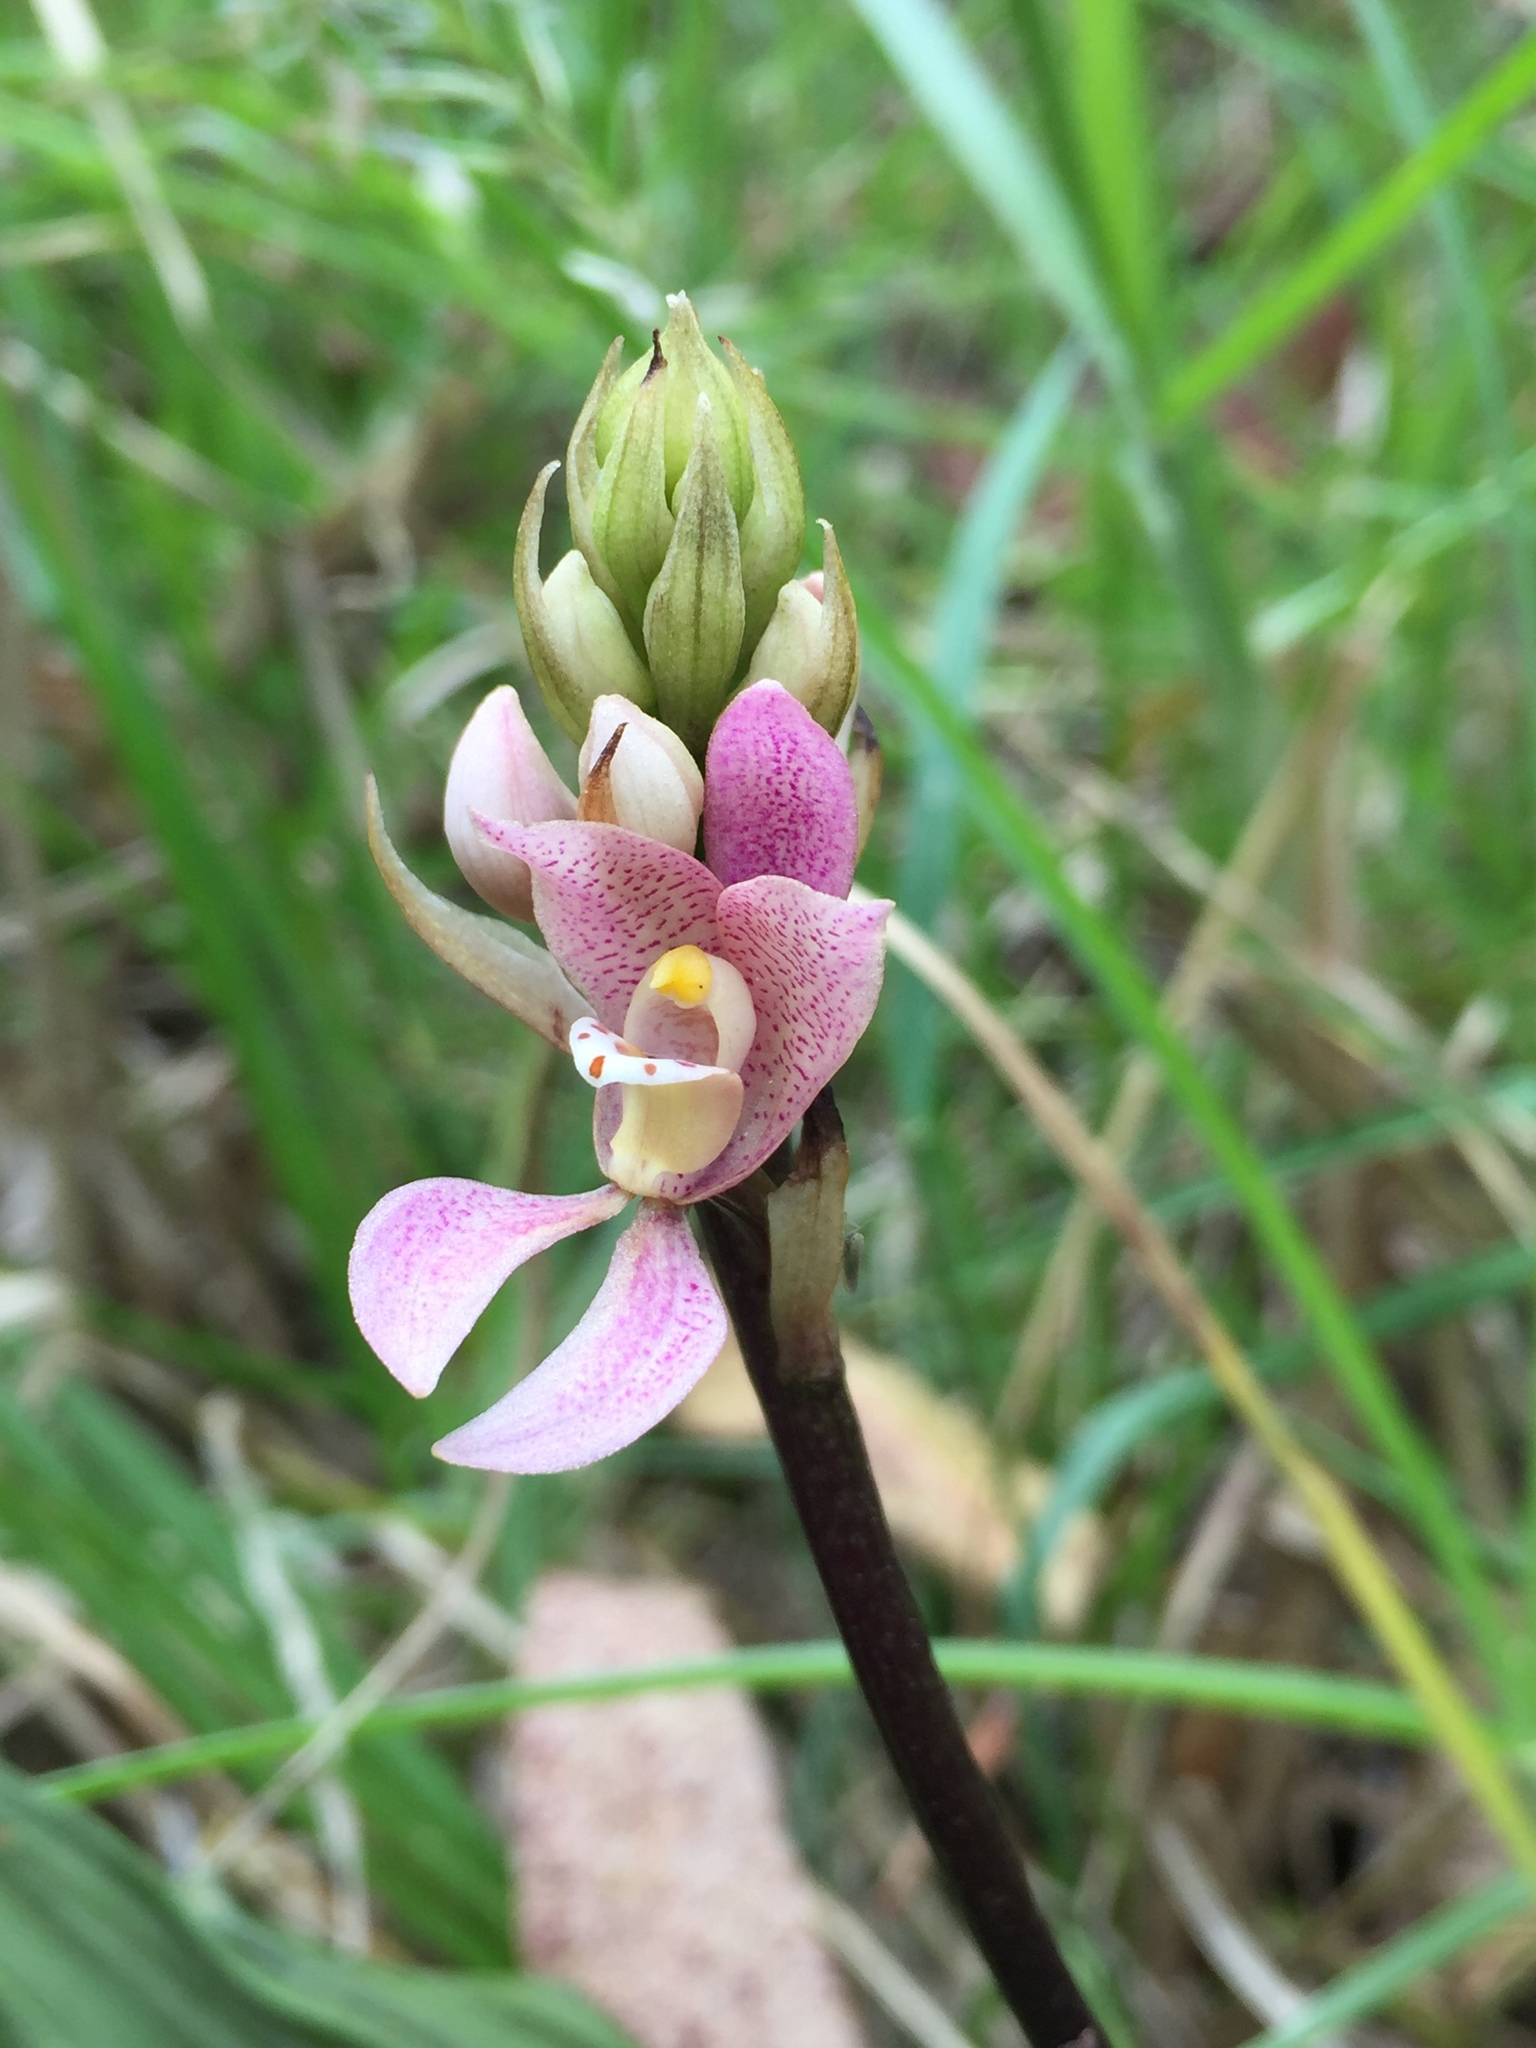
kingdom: Plantae
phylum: Tracheophyta
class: Liliopsida
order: Asparagales
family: Orchidaceae
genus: Govenia
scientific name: Govenia tingens
